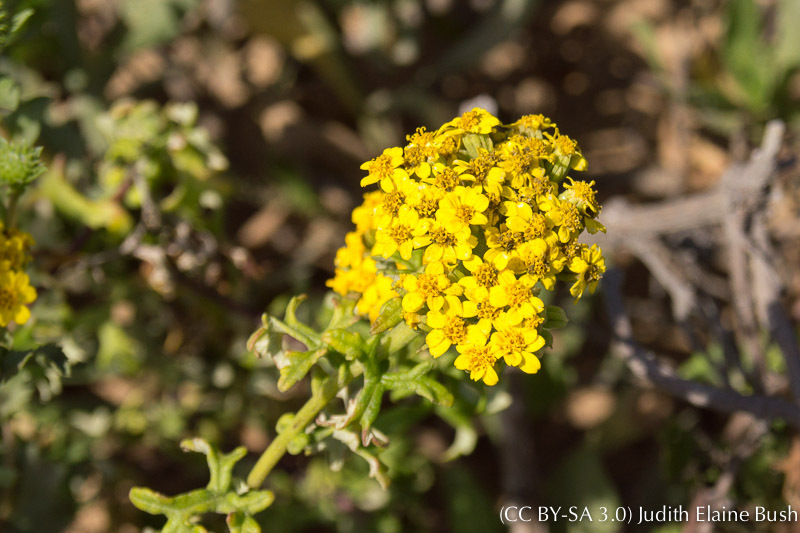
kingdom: Plantae
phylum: Tracheophyta
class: Magnoliopsida
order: Asterales
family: Asteraceae
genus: Eriophyllum
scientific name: Eriophyllum staechadifolium
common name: Lizardtail
